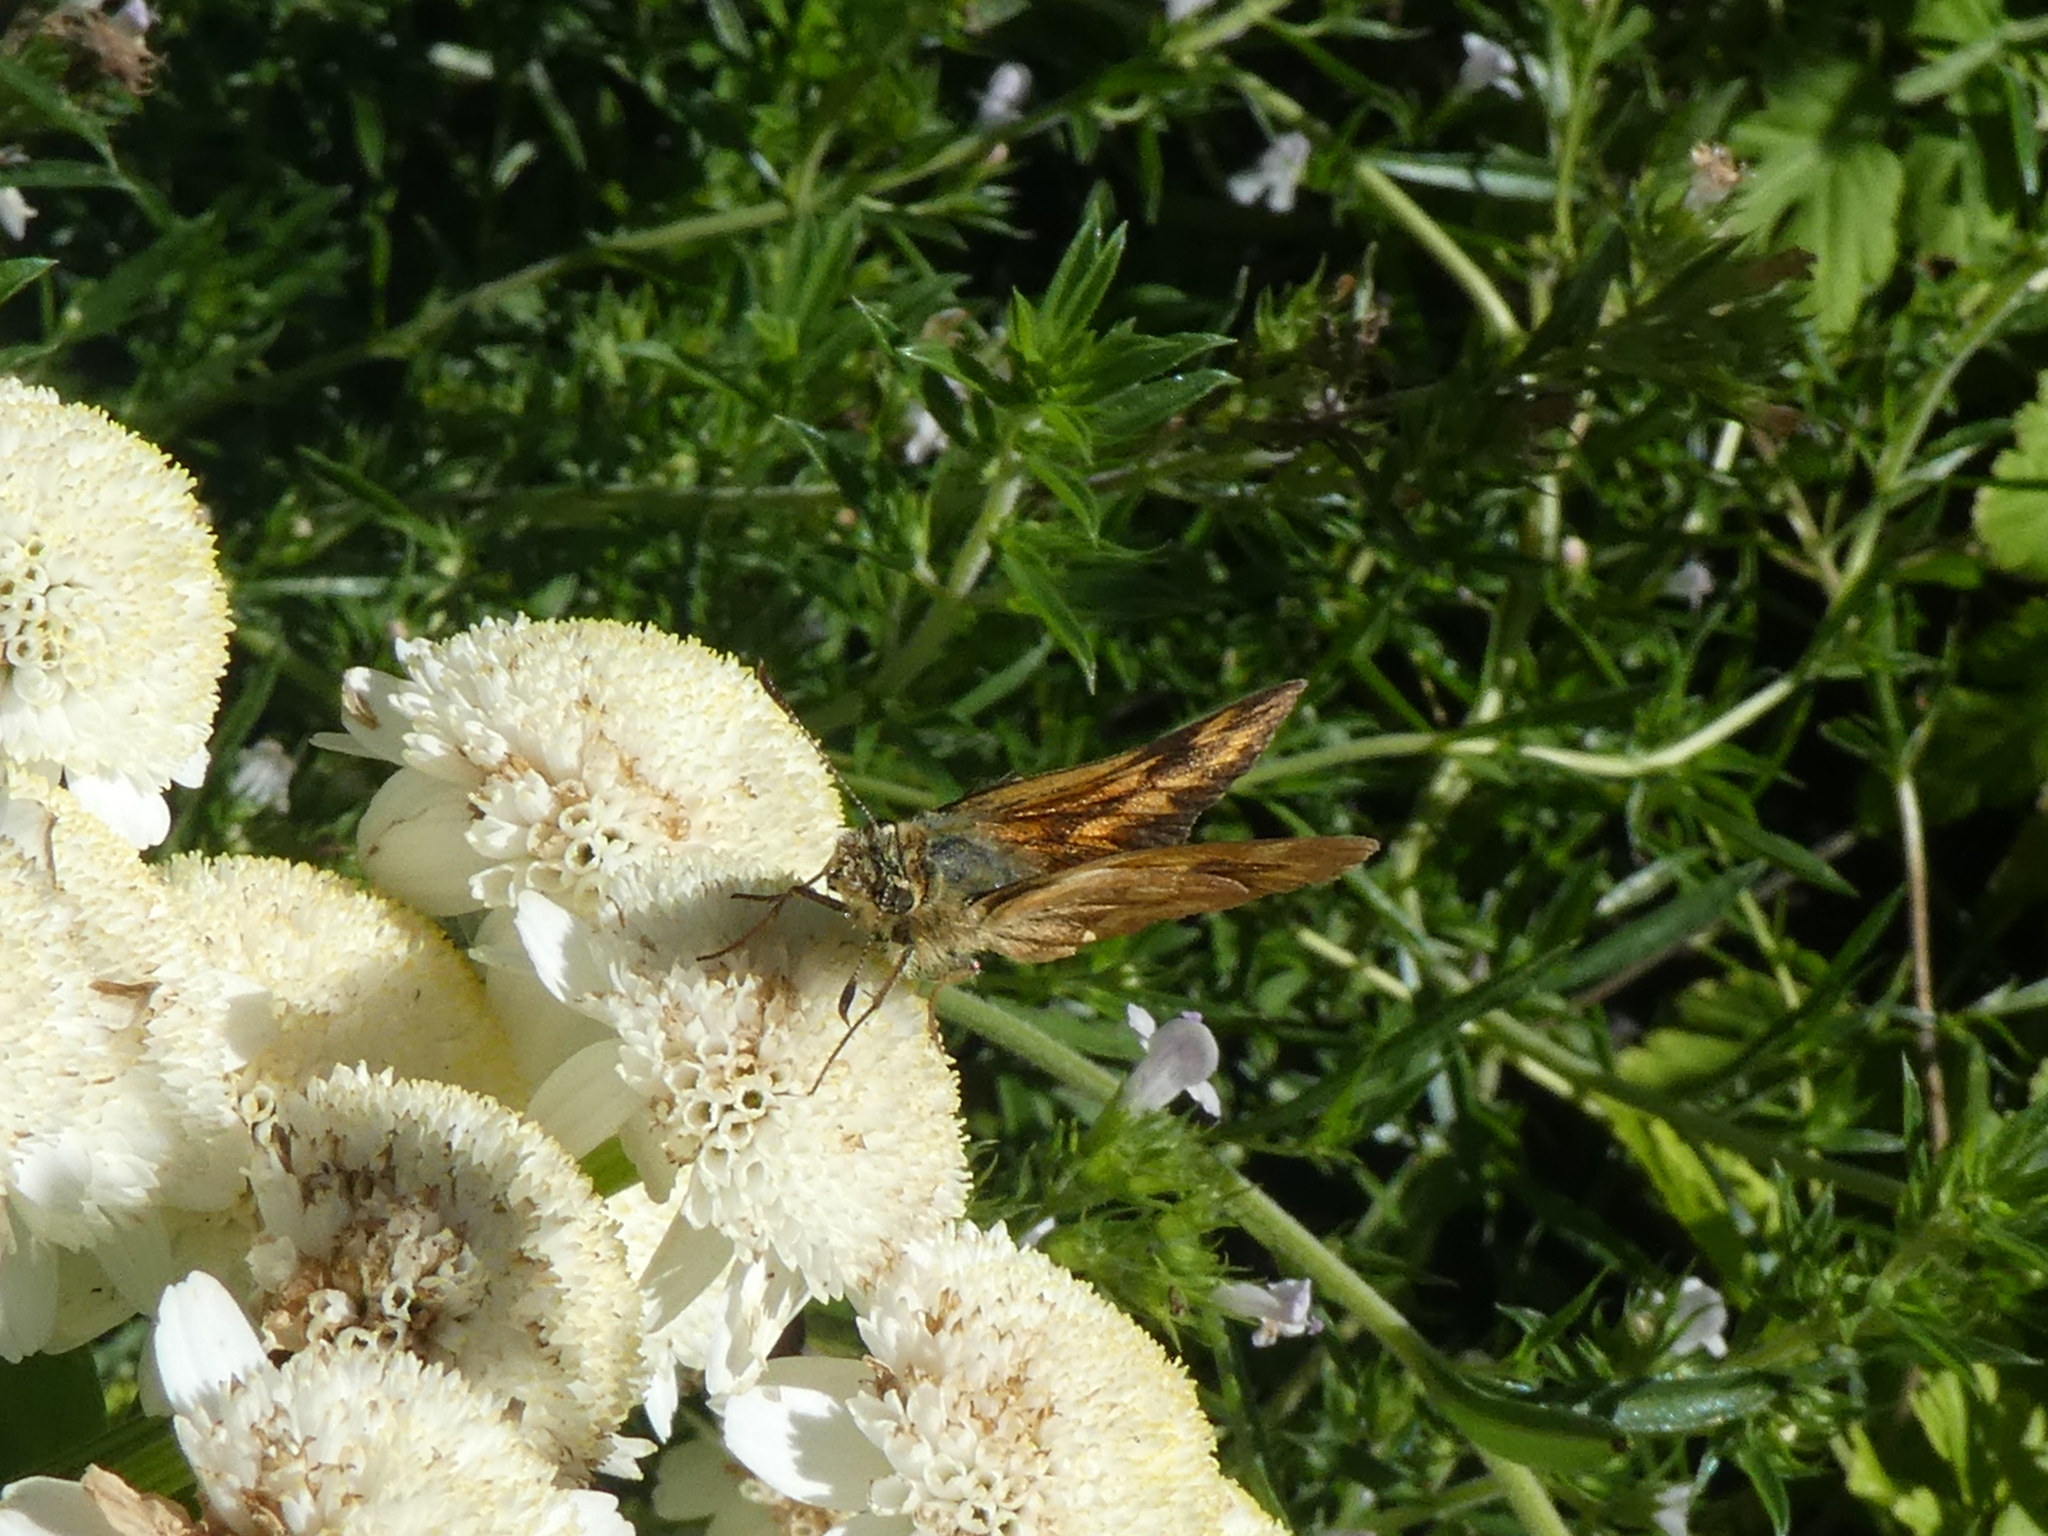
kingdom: Animalia
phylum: Arthropoda
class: Insecta
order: Lepidoptera
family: Hesperiidae
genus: Ochlodes
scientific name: Ochlodes sylvanoides
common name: Woodland skipper
